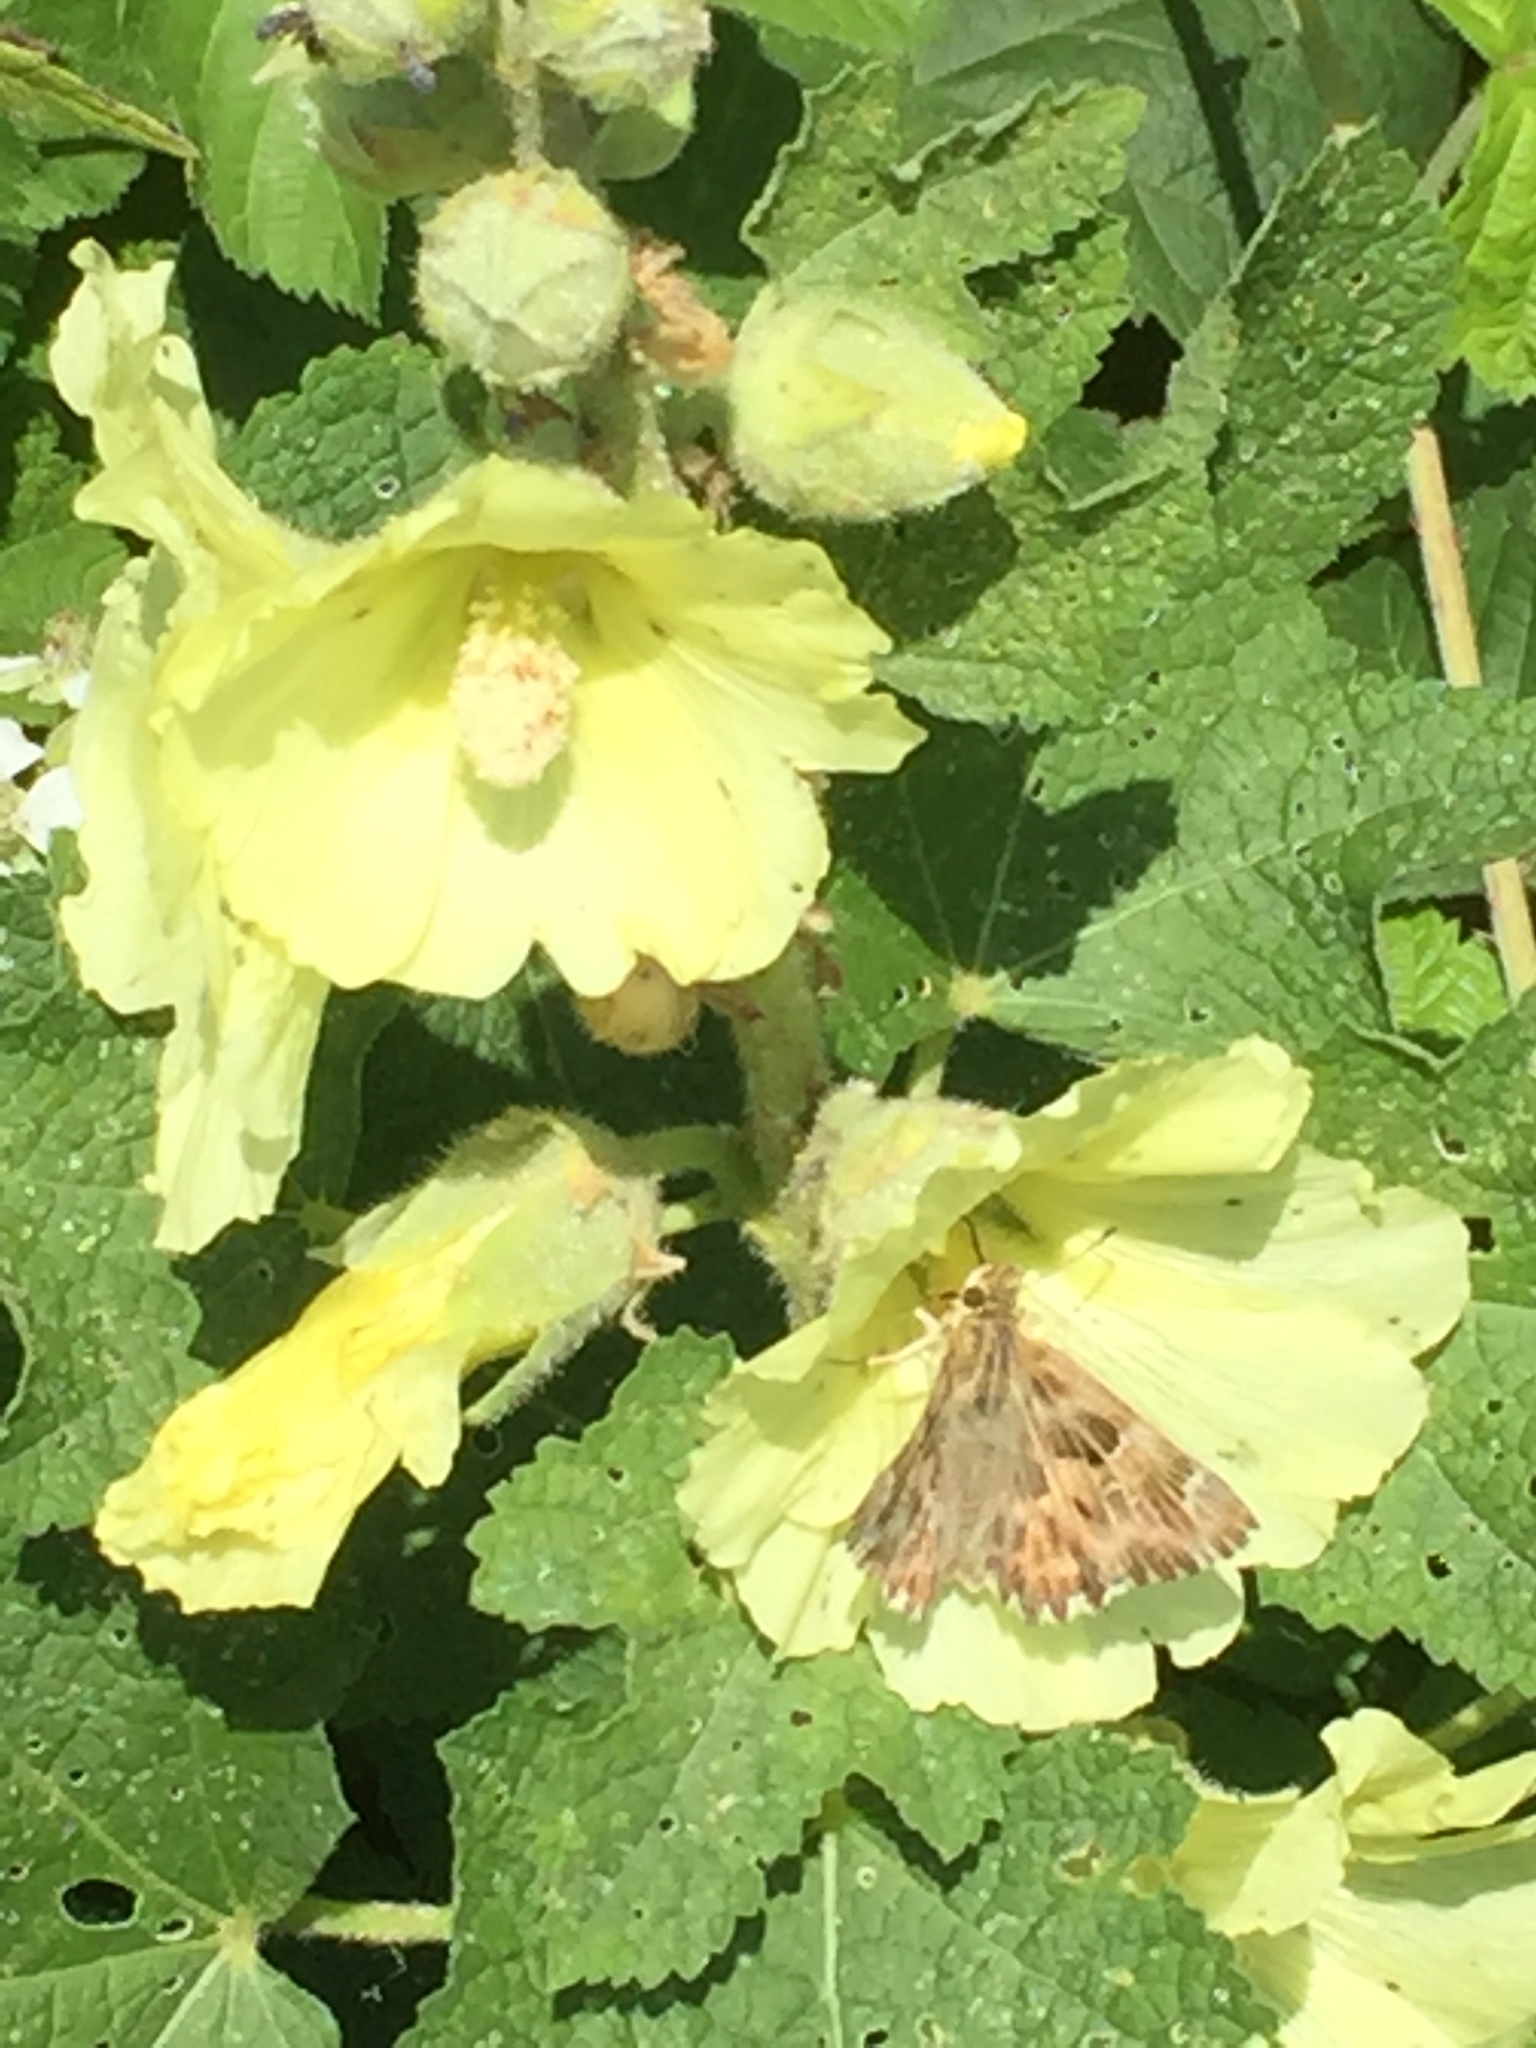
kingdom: Animalia
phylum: Arthropoda
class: Insecta
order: Lepidoptera
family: Hesperiidae
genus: Carcharodus
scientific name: Carcharodus alceae
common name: Mallow skipper
